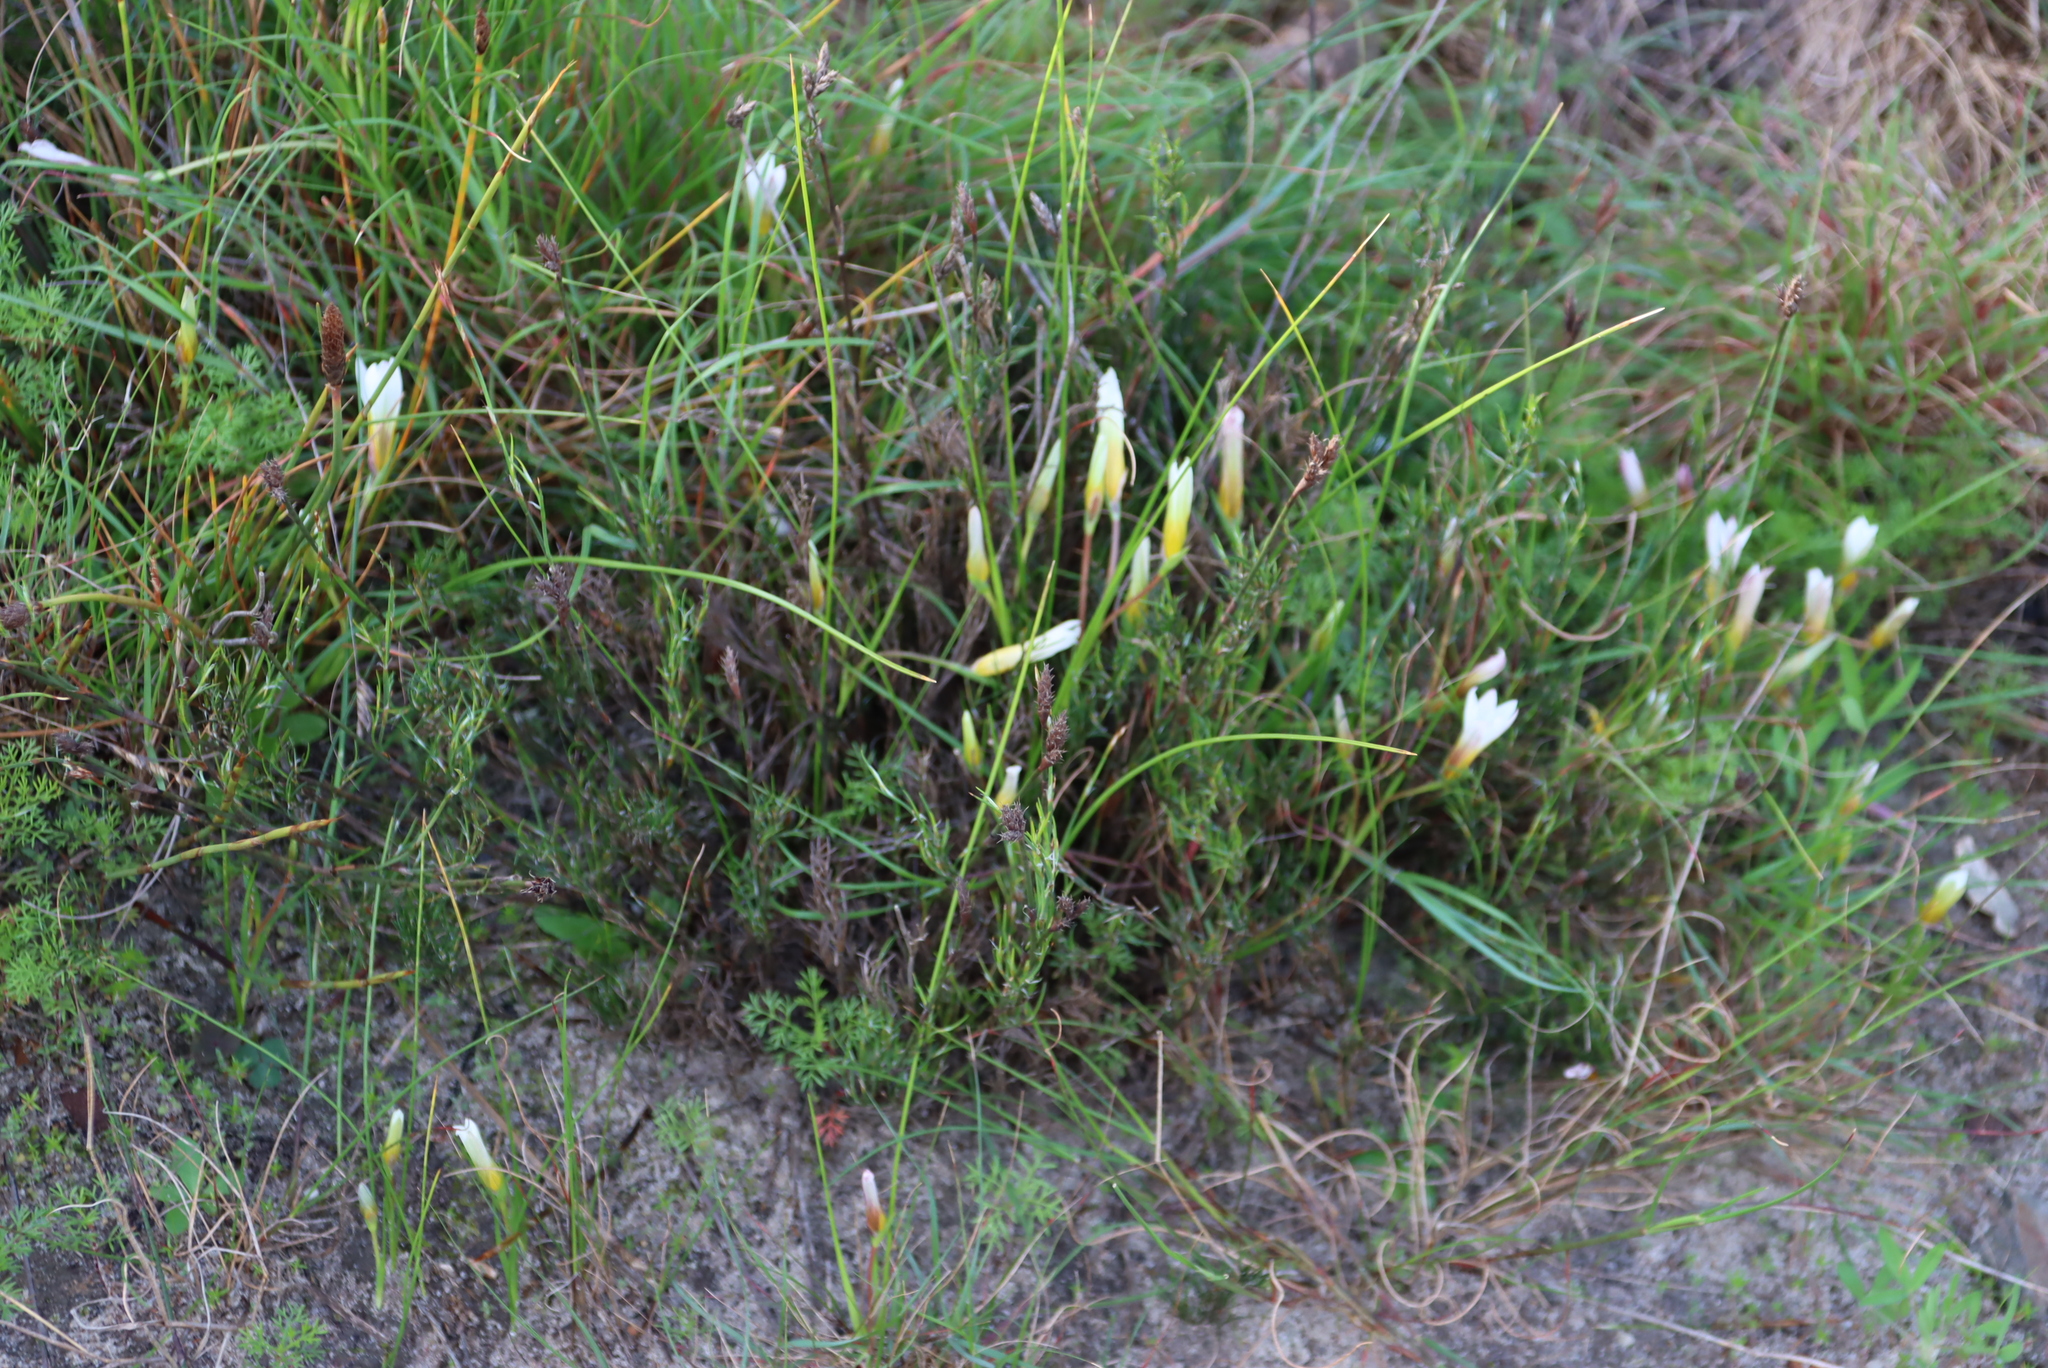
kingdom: Plantae
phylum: Tracheophyta
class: Liliopsida
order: Asparagales
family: Iridaceae
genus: Romulea
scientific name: Romulea flava
